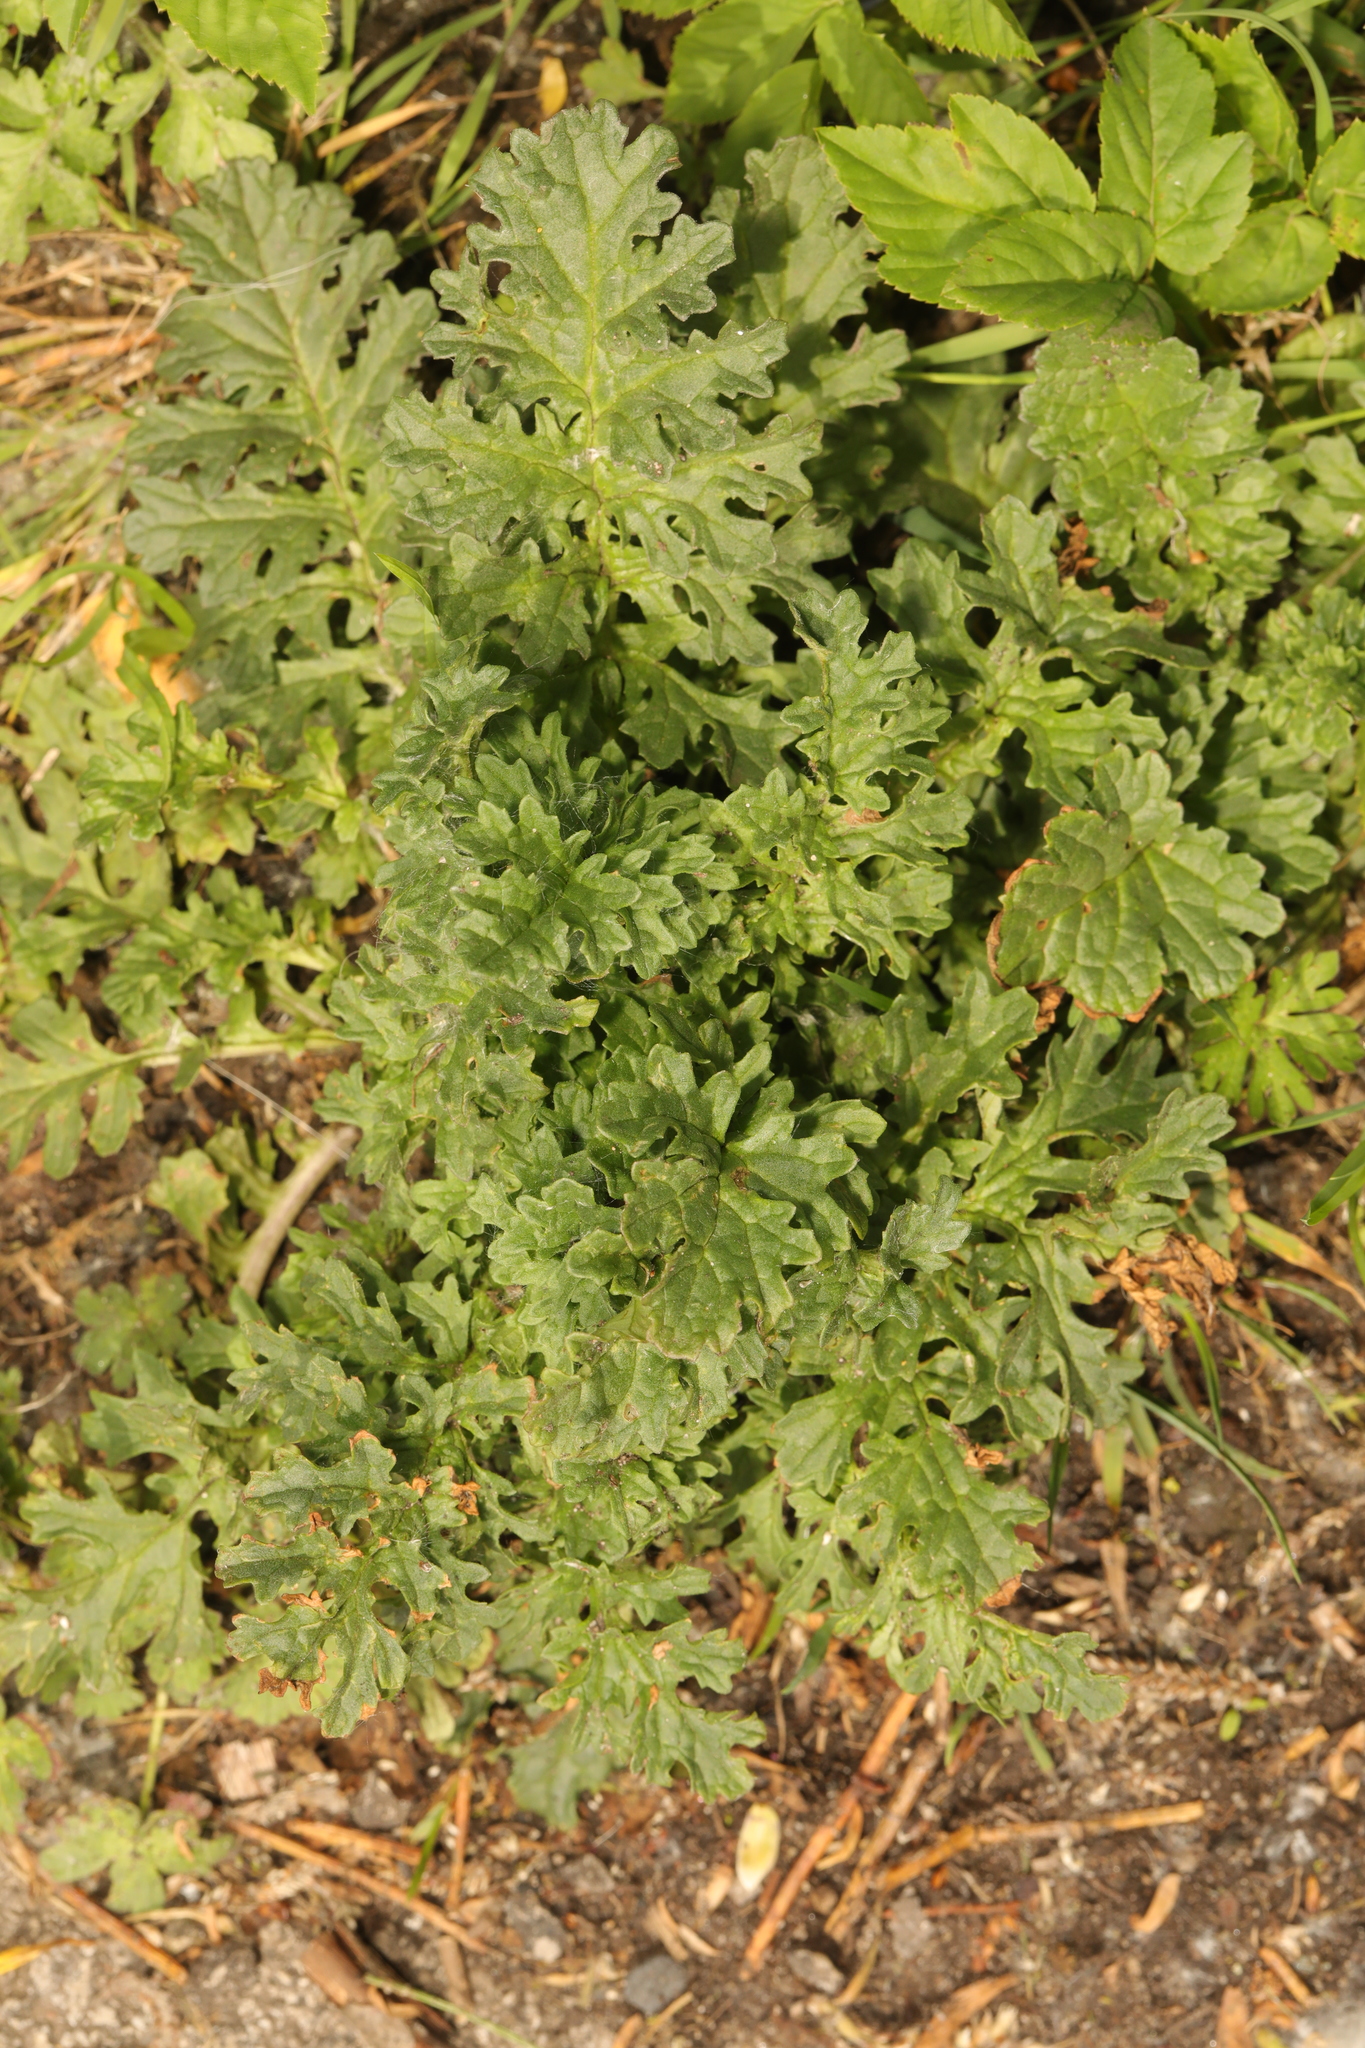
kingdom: Plantae
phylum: Tracheophyta
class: Magnoliopsida
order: Asterales
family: Asteraceae
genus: Jacobaea
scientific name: Jacobaea vulgaris
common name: Stinking willie
